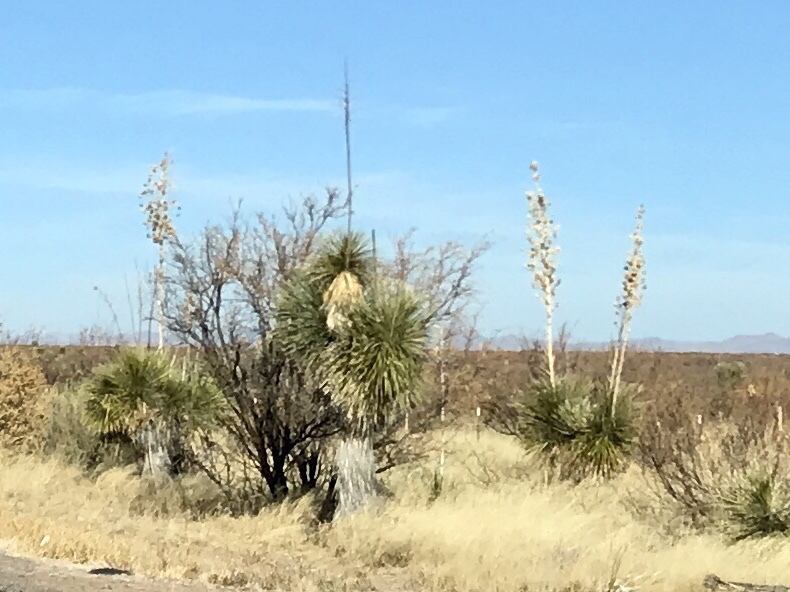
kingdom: Plantae
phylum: Tracheophyta
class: Liliopsida
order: Asparagales
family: Asparagaceae
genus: Yucca
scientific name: Yucca elata
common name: Palmella
